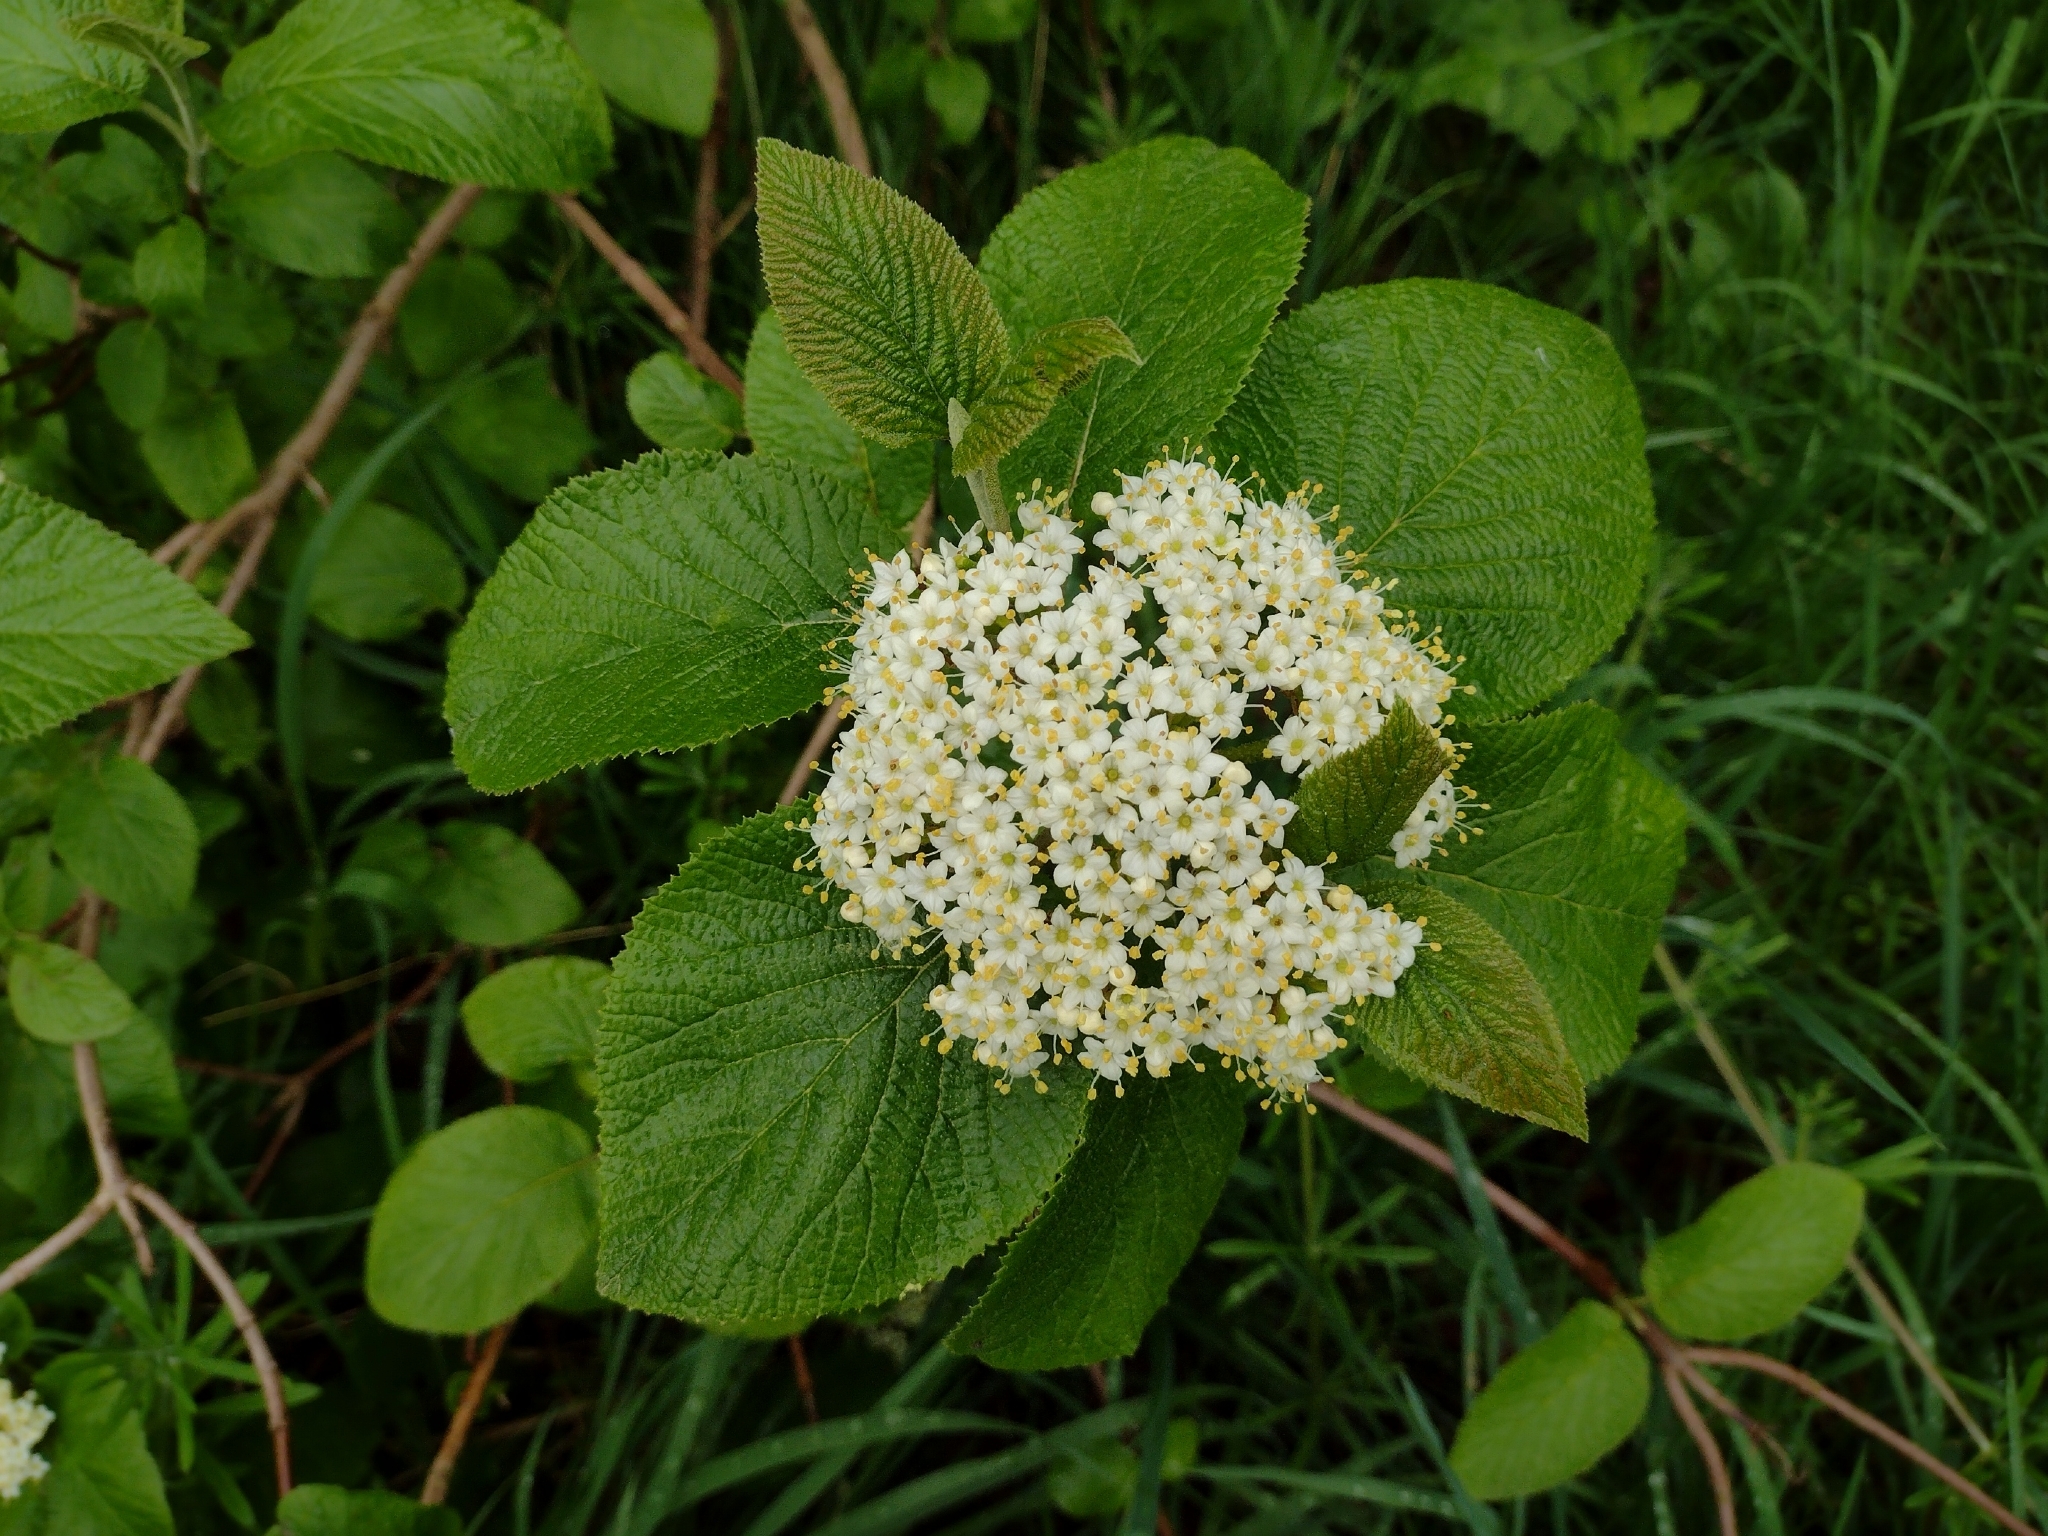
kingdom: Plantae
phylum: Tracheophyta
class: Magnoliopsida
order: Dipsacales
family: Viburnaceae
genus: Viburnum
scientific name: Viburnum lantana
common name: Wayfaring tree
